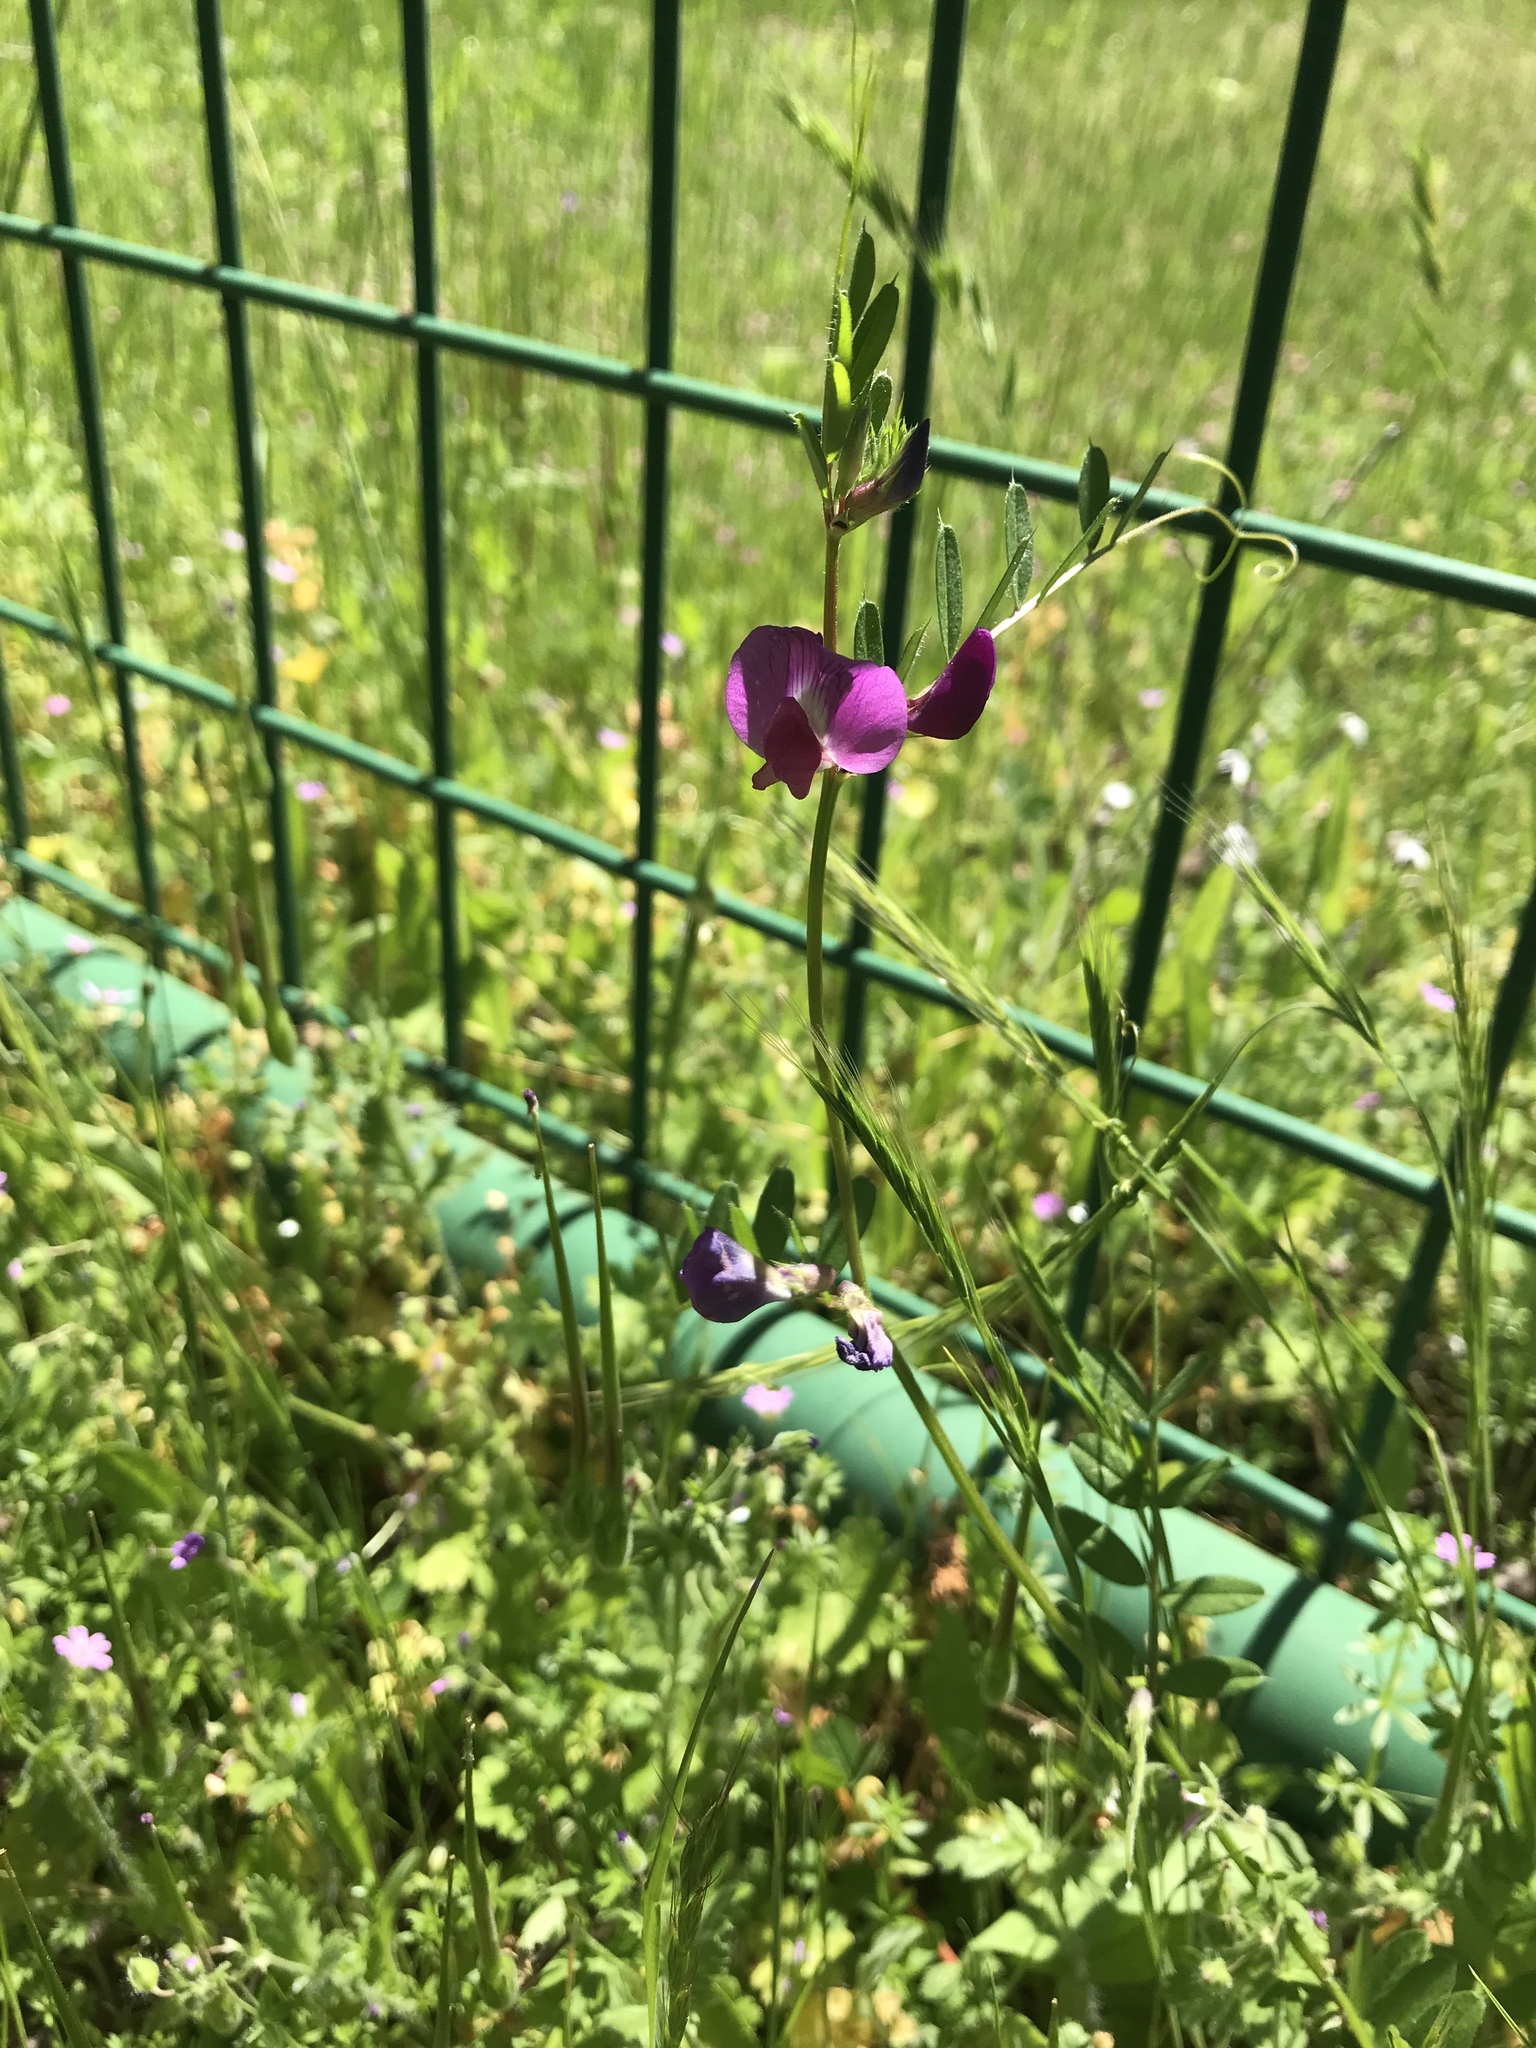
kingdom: Plantae
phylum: Tracheophyta
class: Magnoliopsida
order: Fabales
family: Fabaceae
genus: Vicia
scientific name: Vicia sativa
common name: Garden vetch
